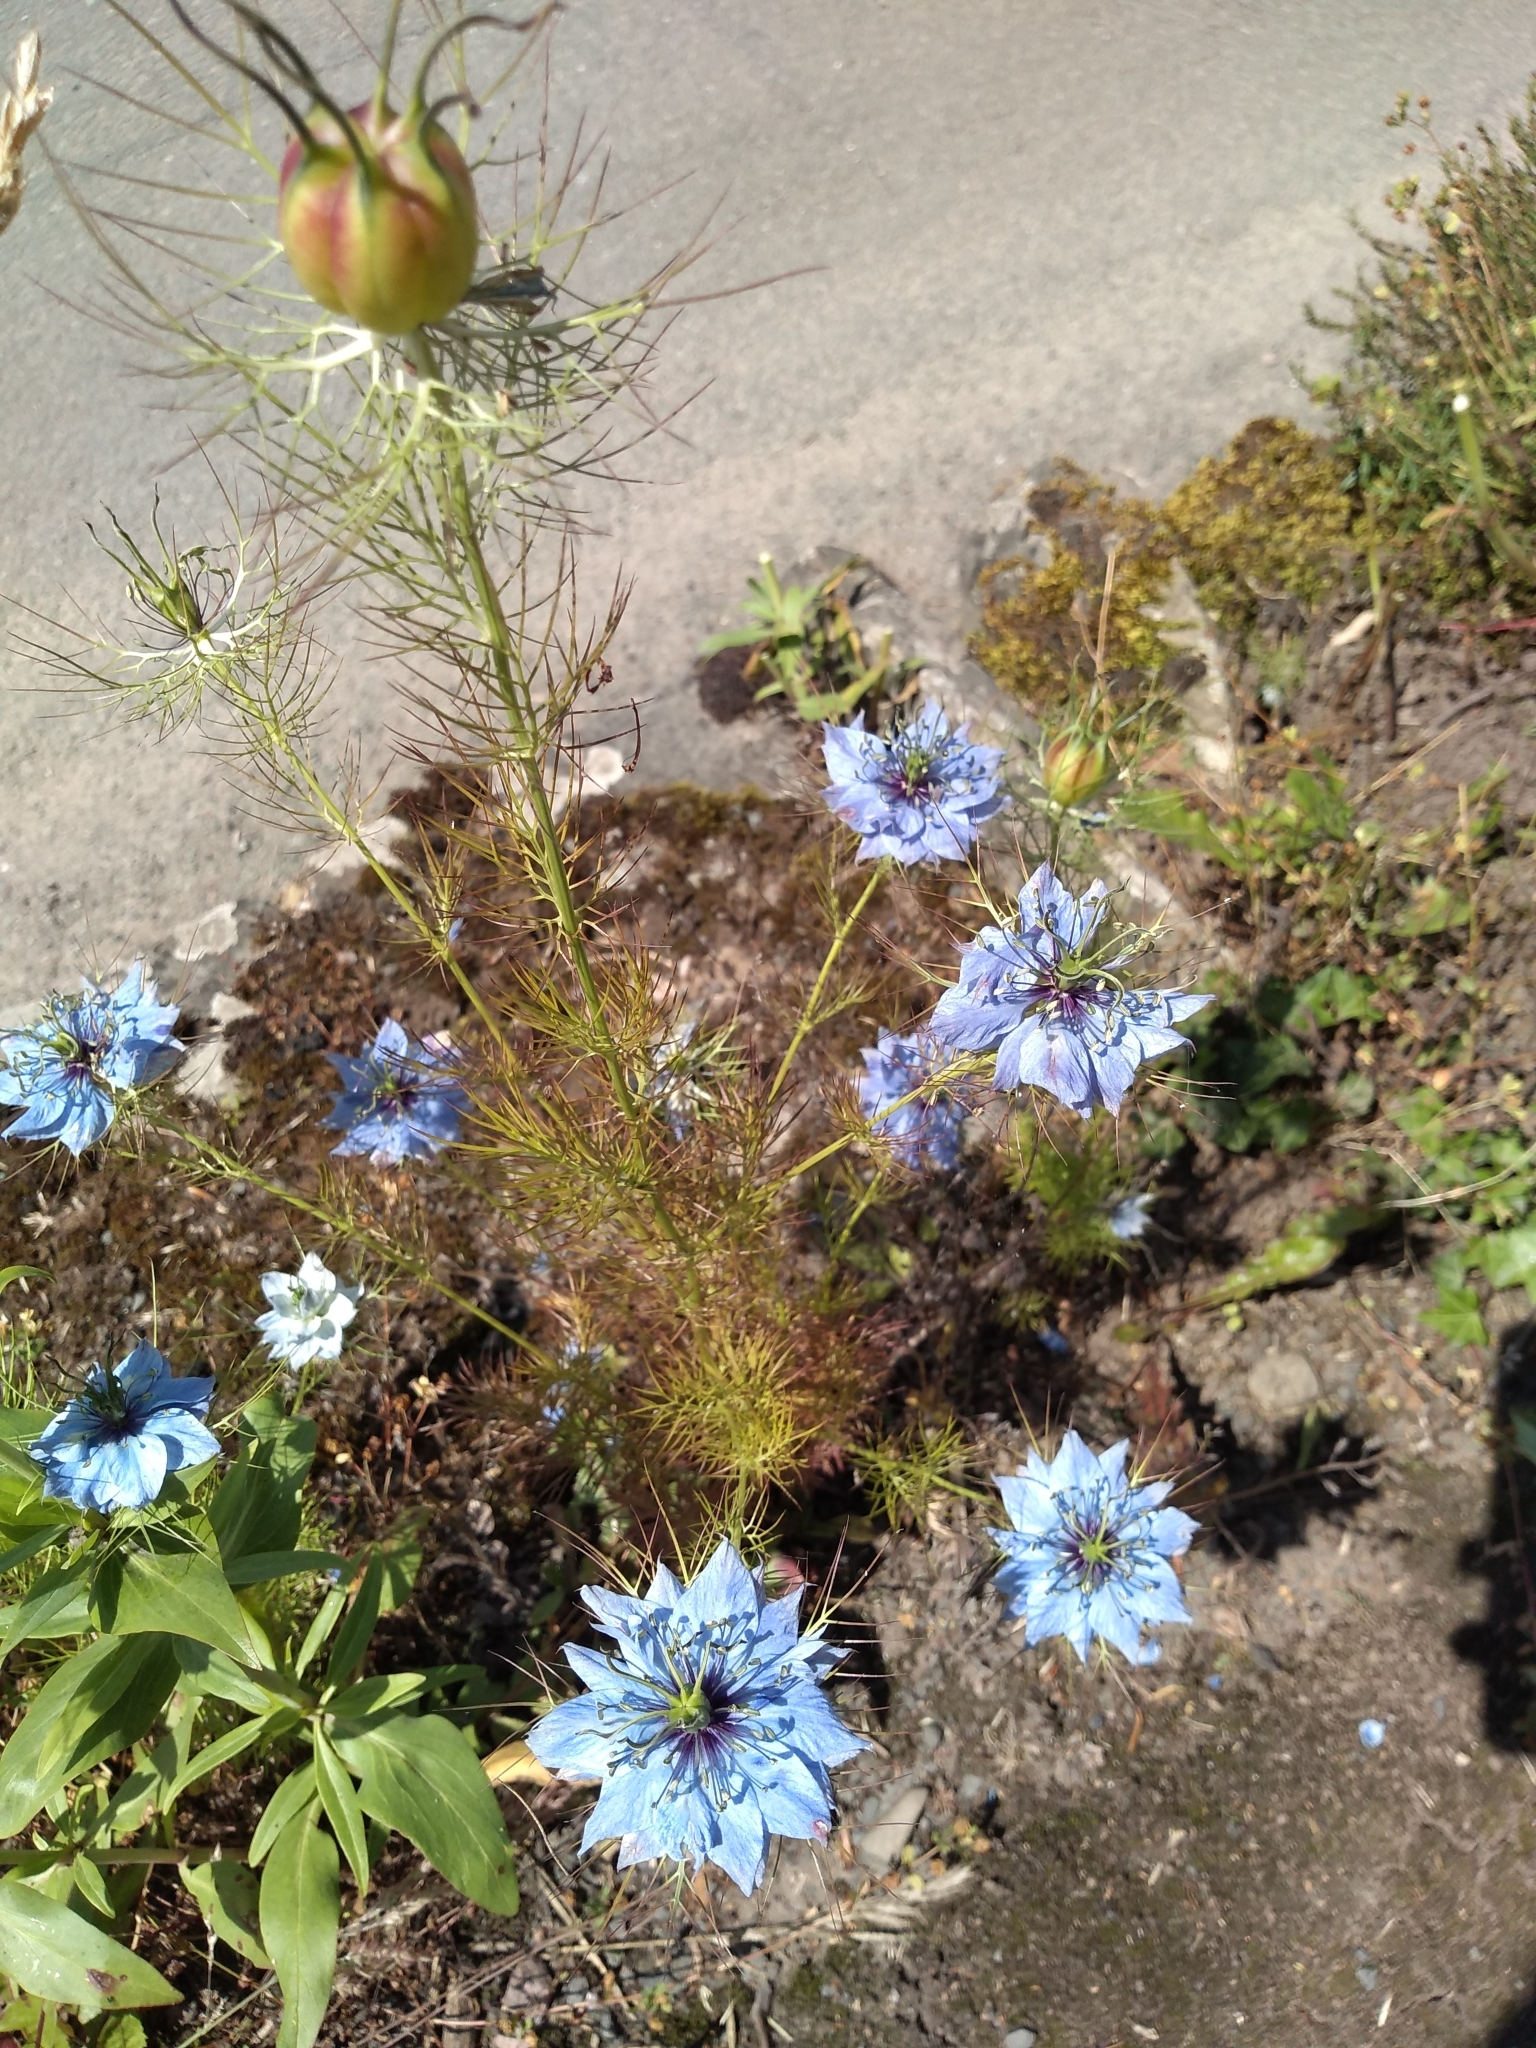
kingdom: Plantae
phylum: Tracheophyta
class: Magnoliopsida
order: Ranunculales
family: Ranunculaceae
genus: Nigella
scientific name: Nigella damascena
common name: Love-in-a-mist
